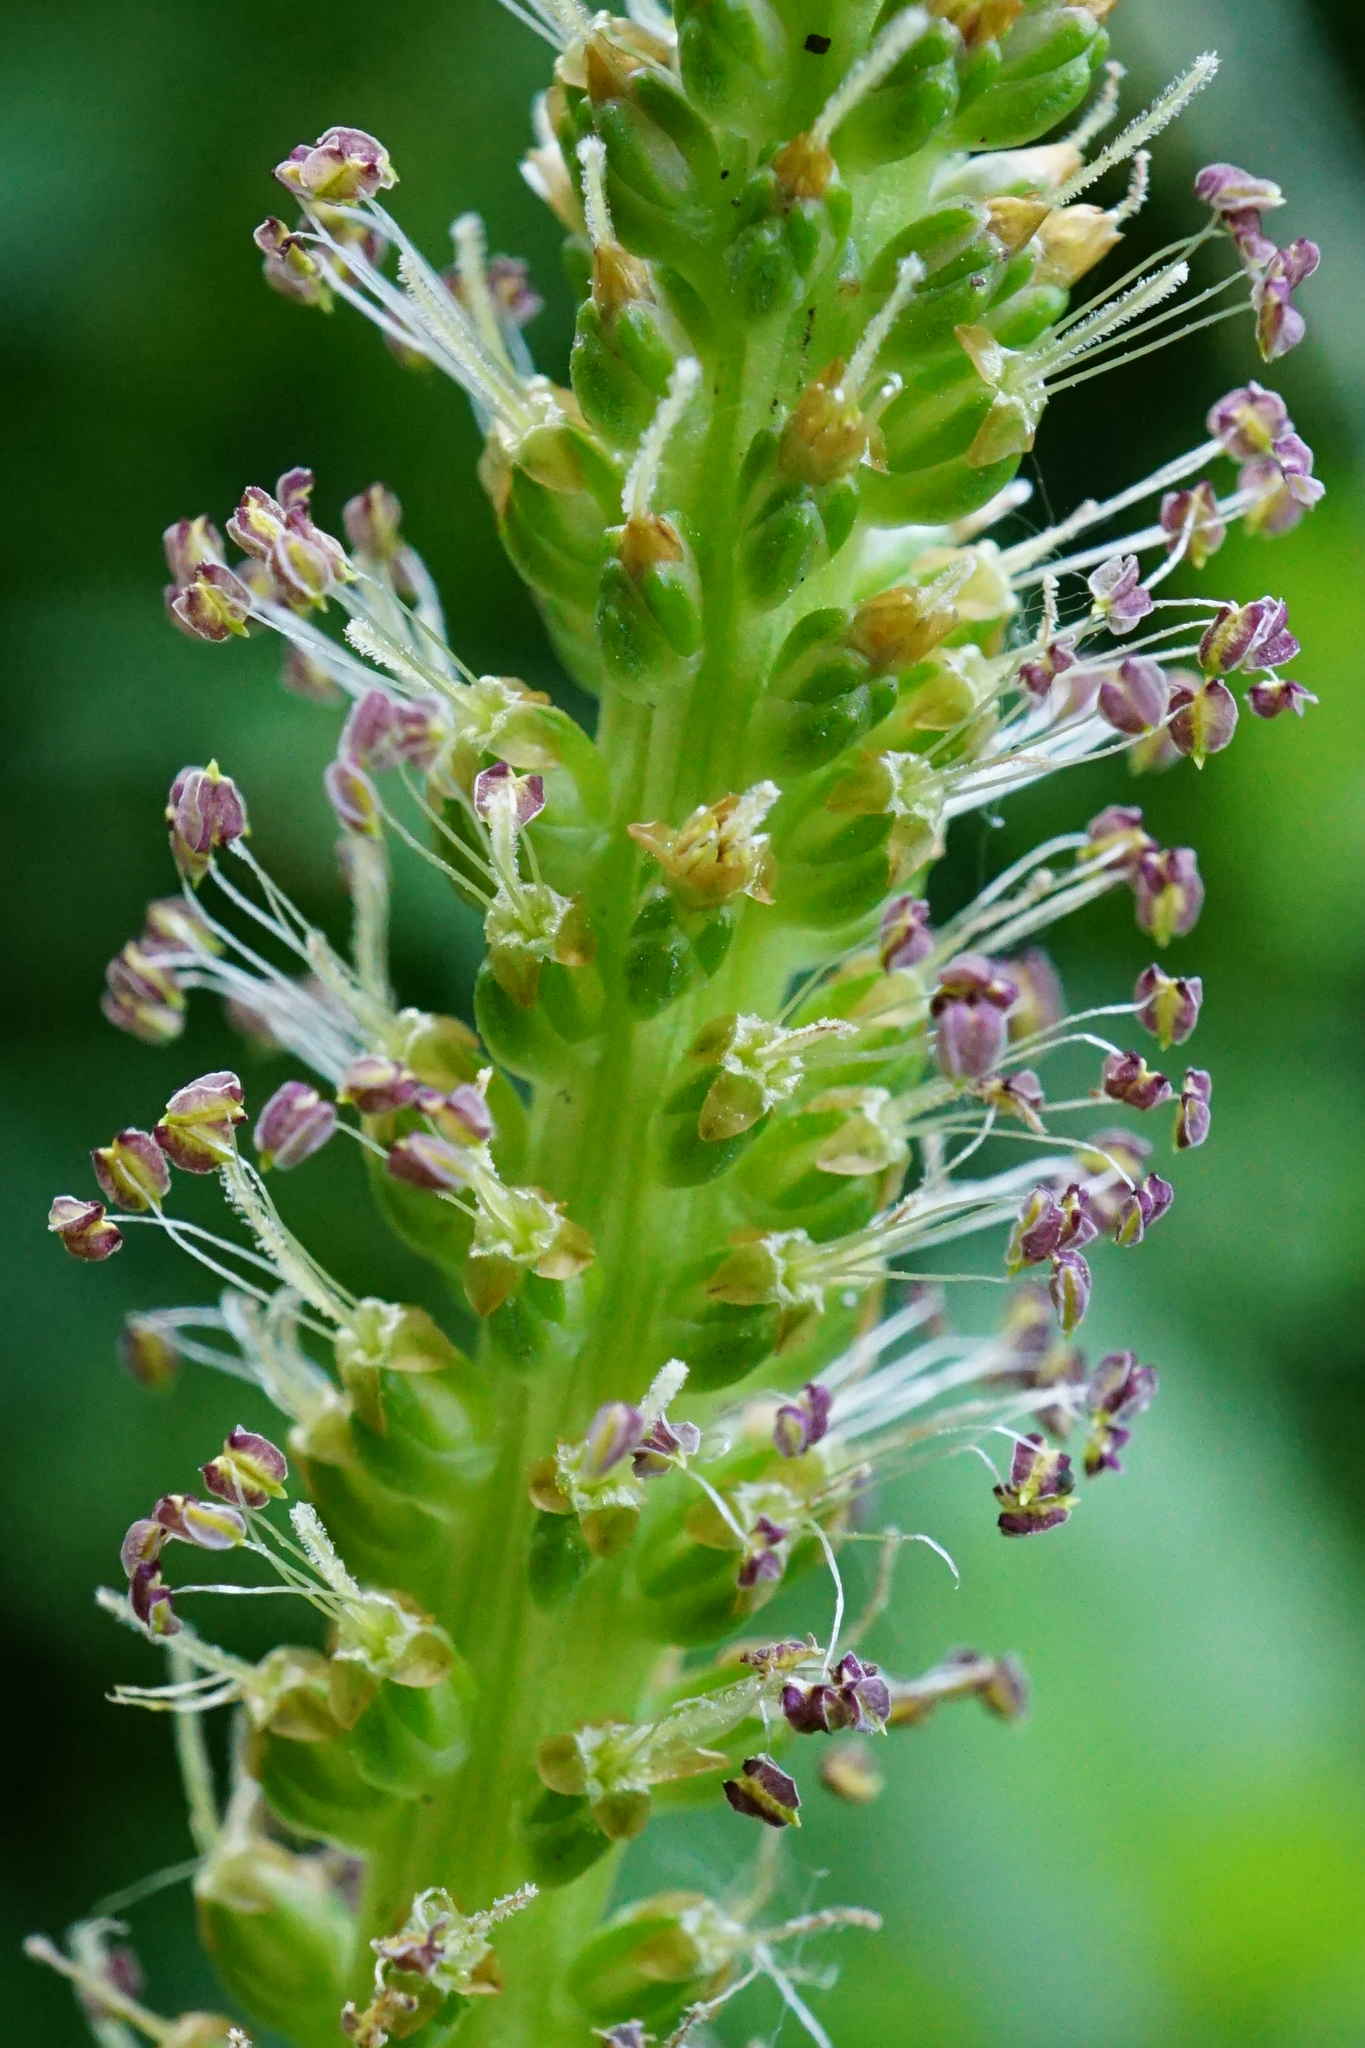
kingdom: Plantae
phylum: Tracheophyta
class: Magnoliopsida
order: Lamiales
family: Plantaginaceae
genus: Plantago
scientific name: Plantago major
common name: Common plantain
